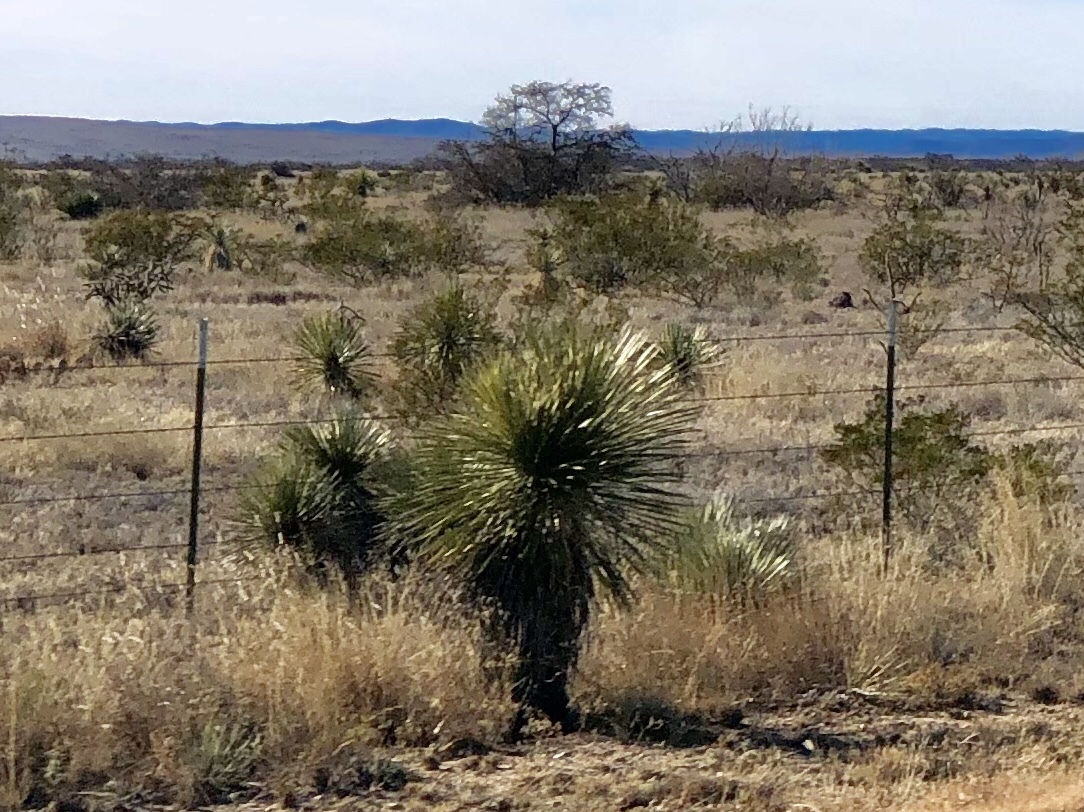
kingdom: Plantae
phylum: Tracheophyta
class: Liliopsida
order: Asparagales
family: Asparagaceae
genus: Yucca
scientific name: Yucca elata
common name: Palmella
